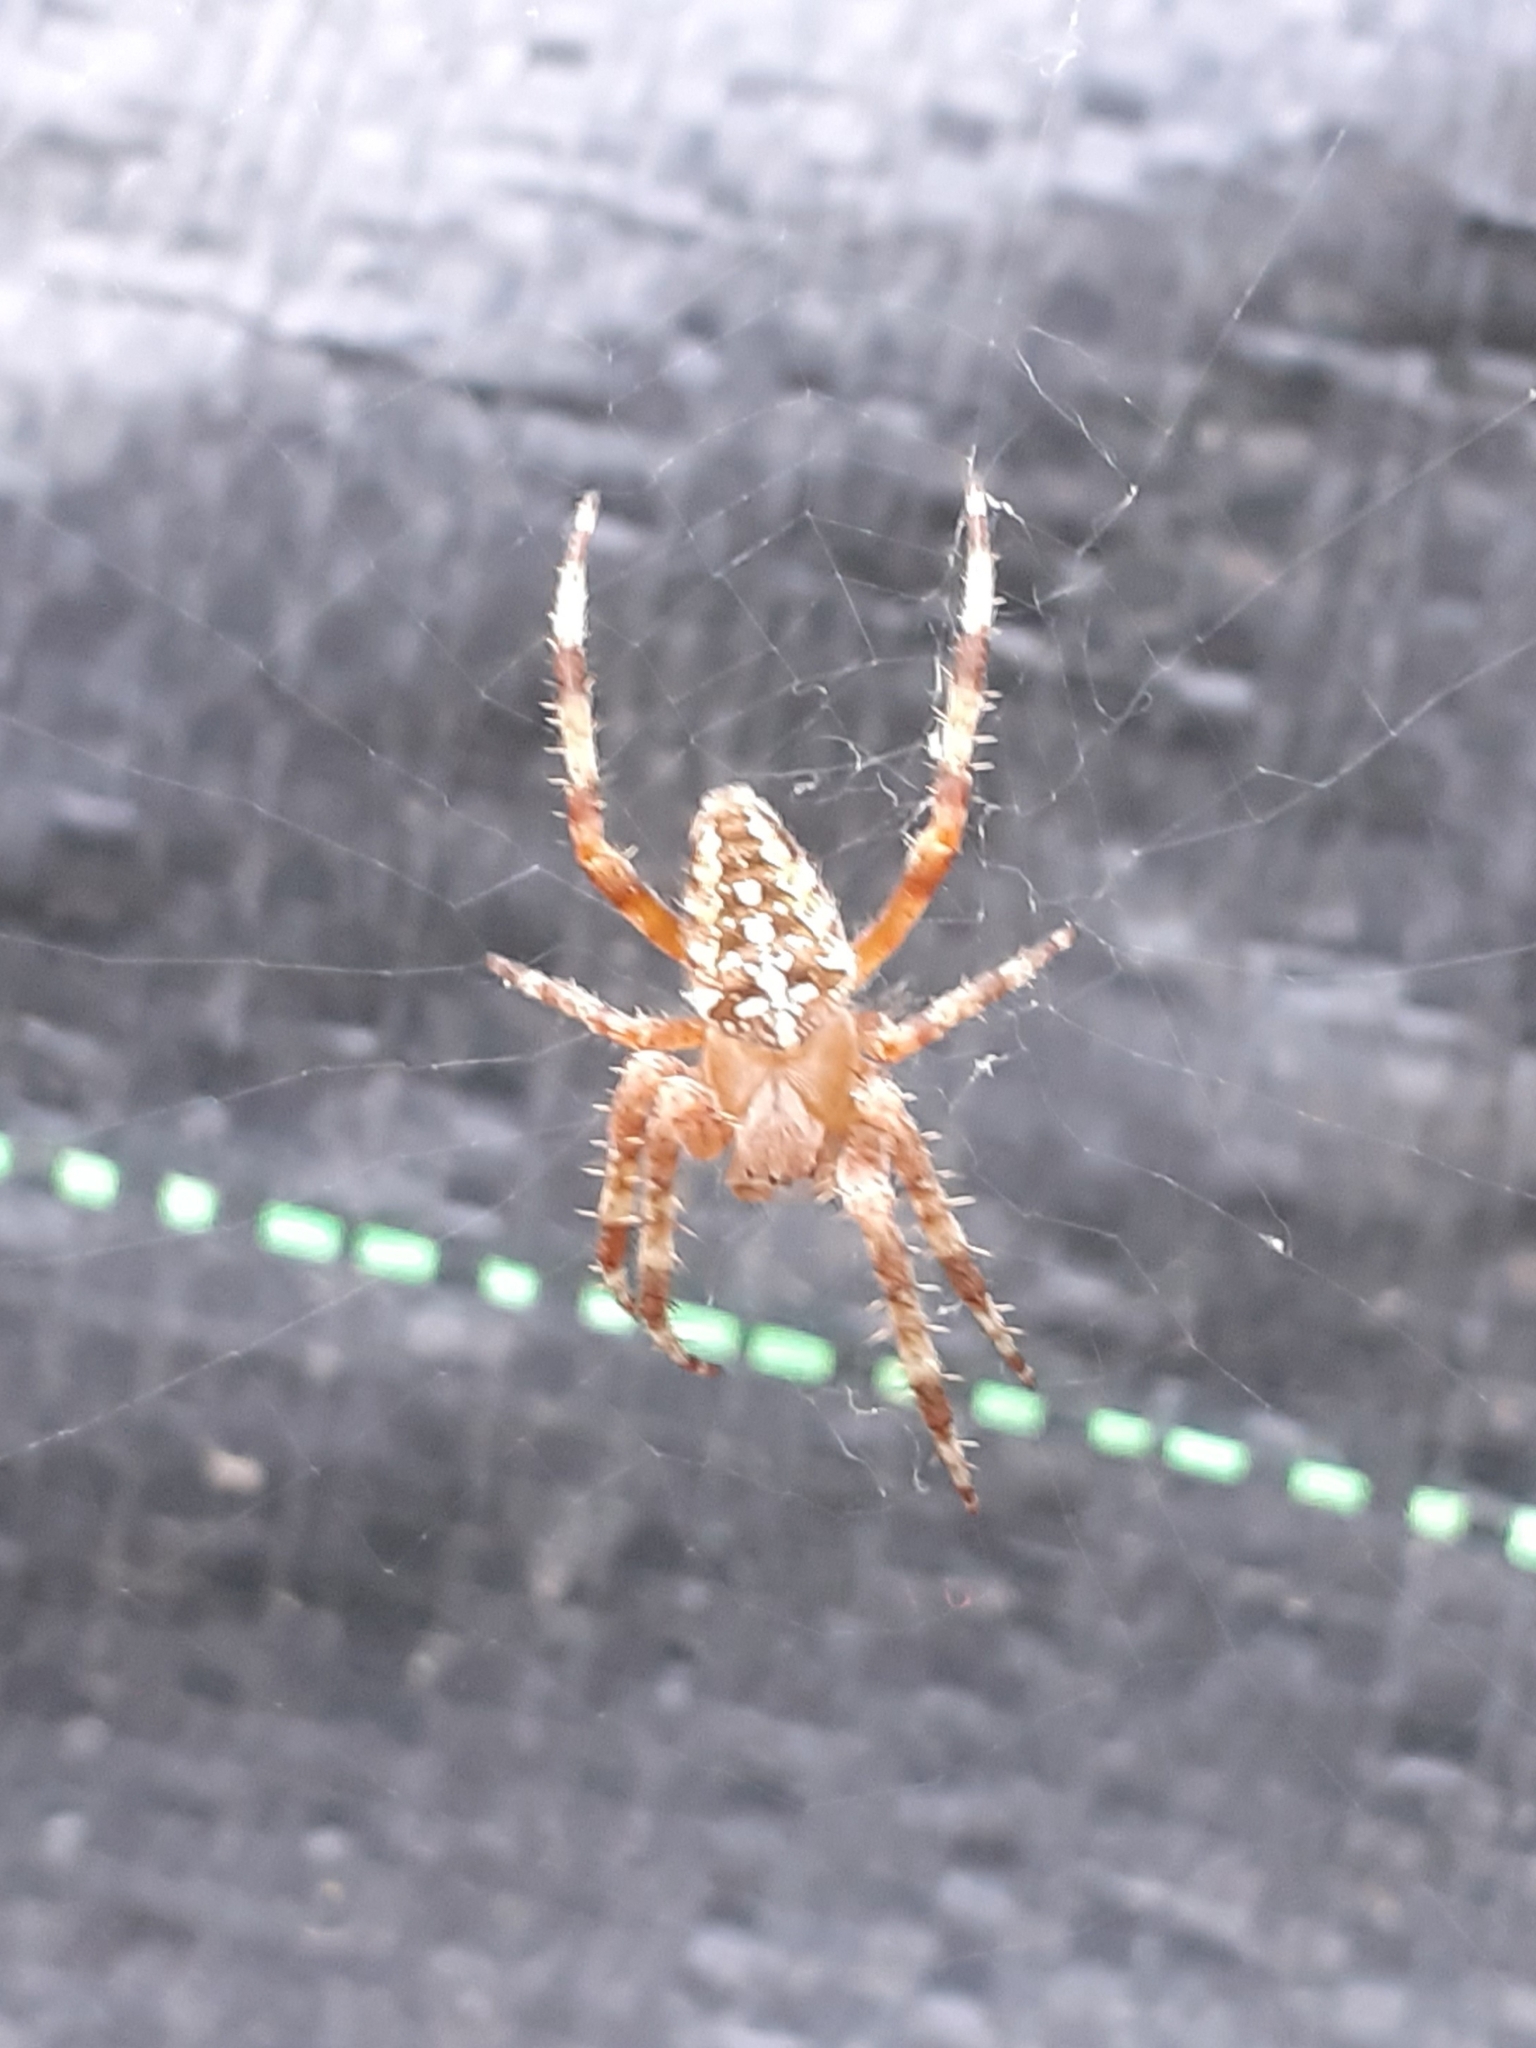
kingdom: Animalia
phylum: Arthropoda
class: Arachnida
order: Araneae
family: Araneidae
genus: Araneus
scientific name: Araneus diadematus
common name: Cross orbweaver
